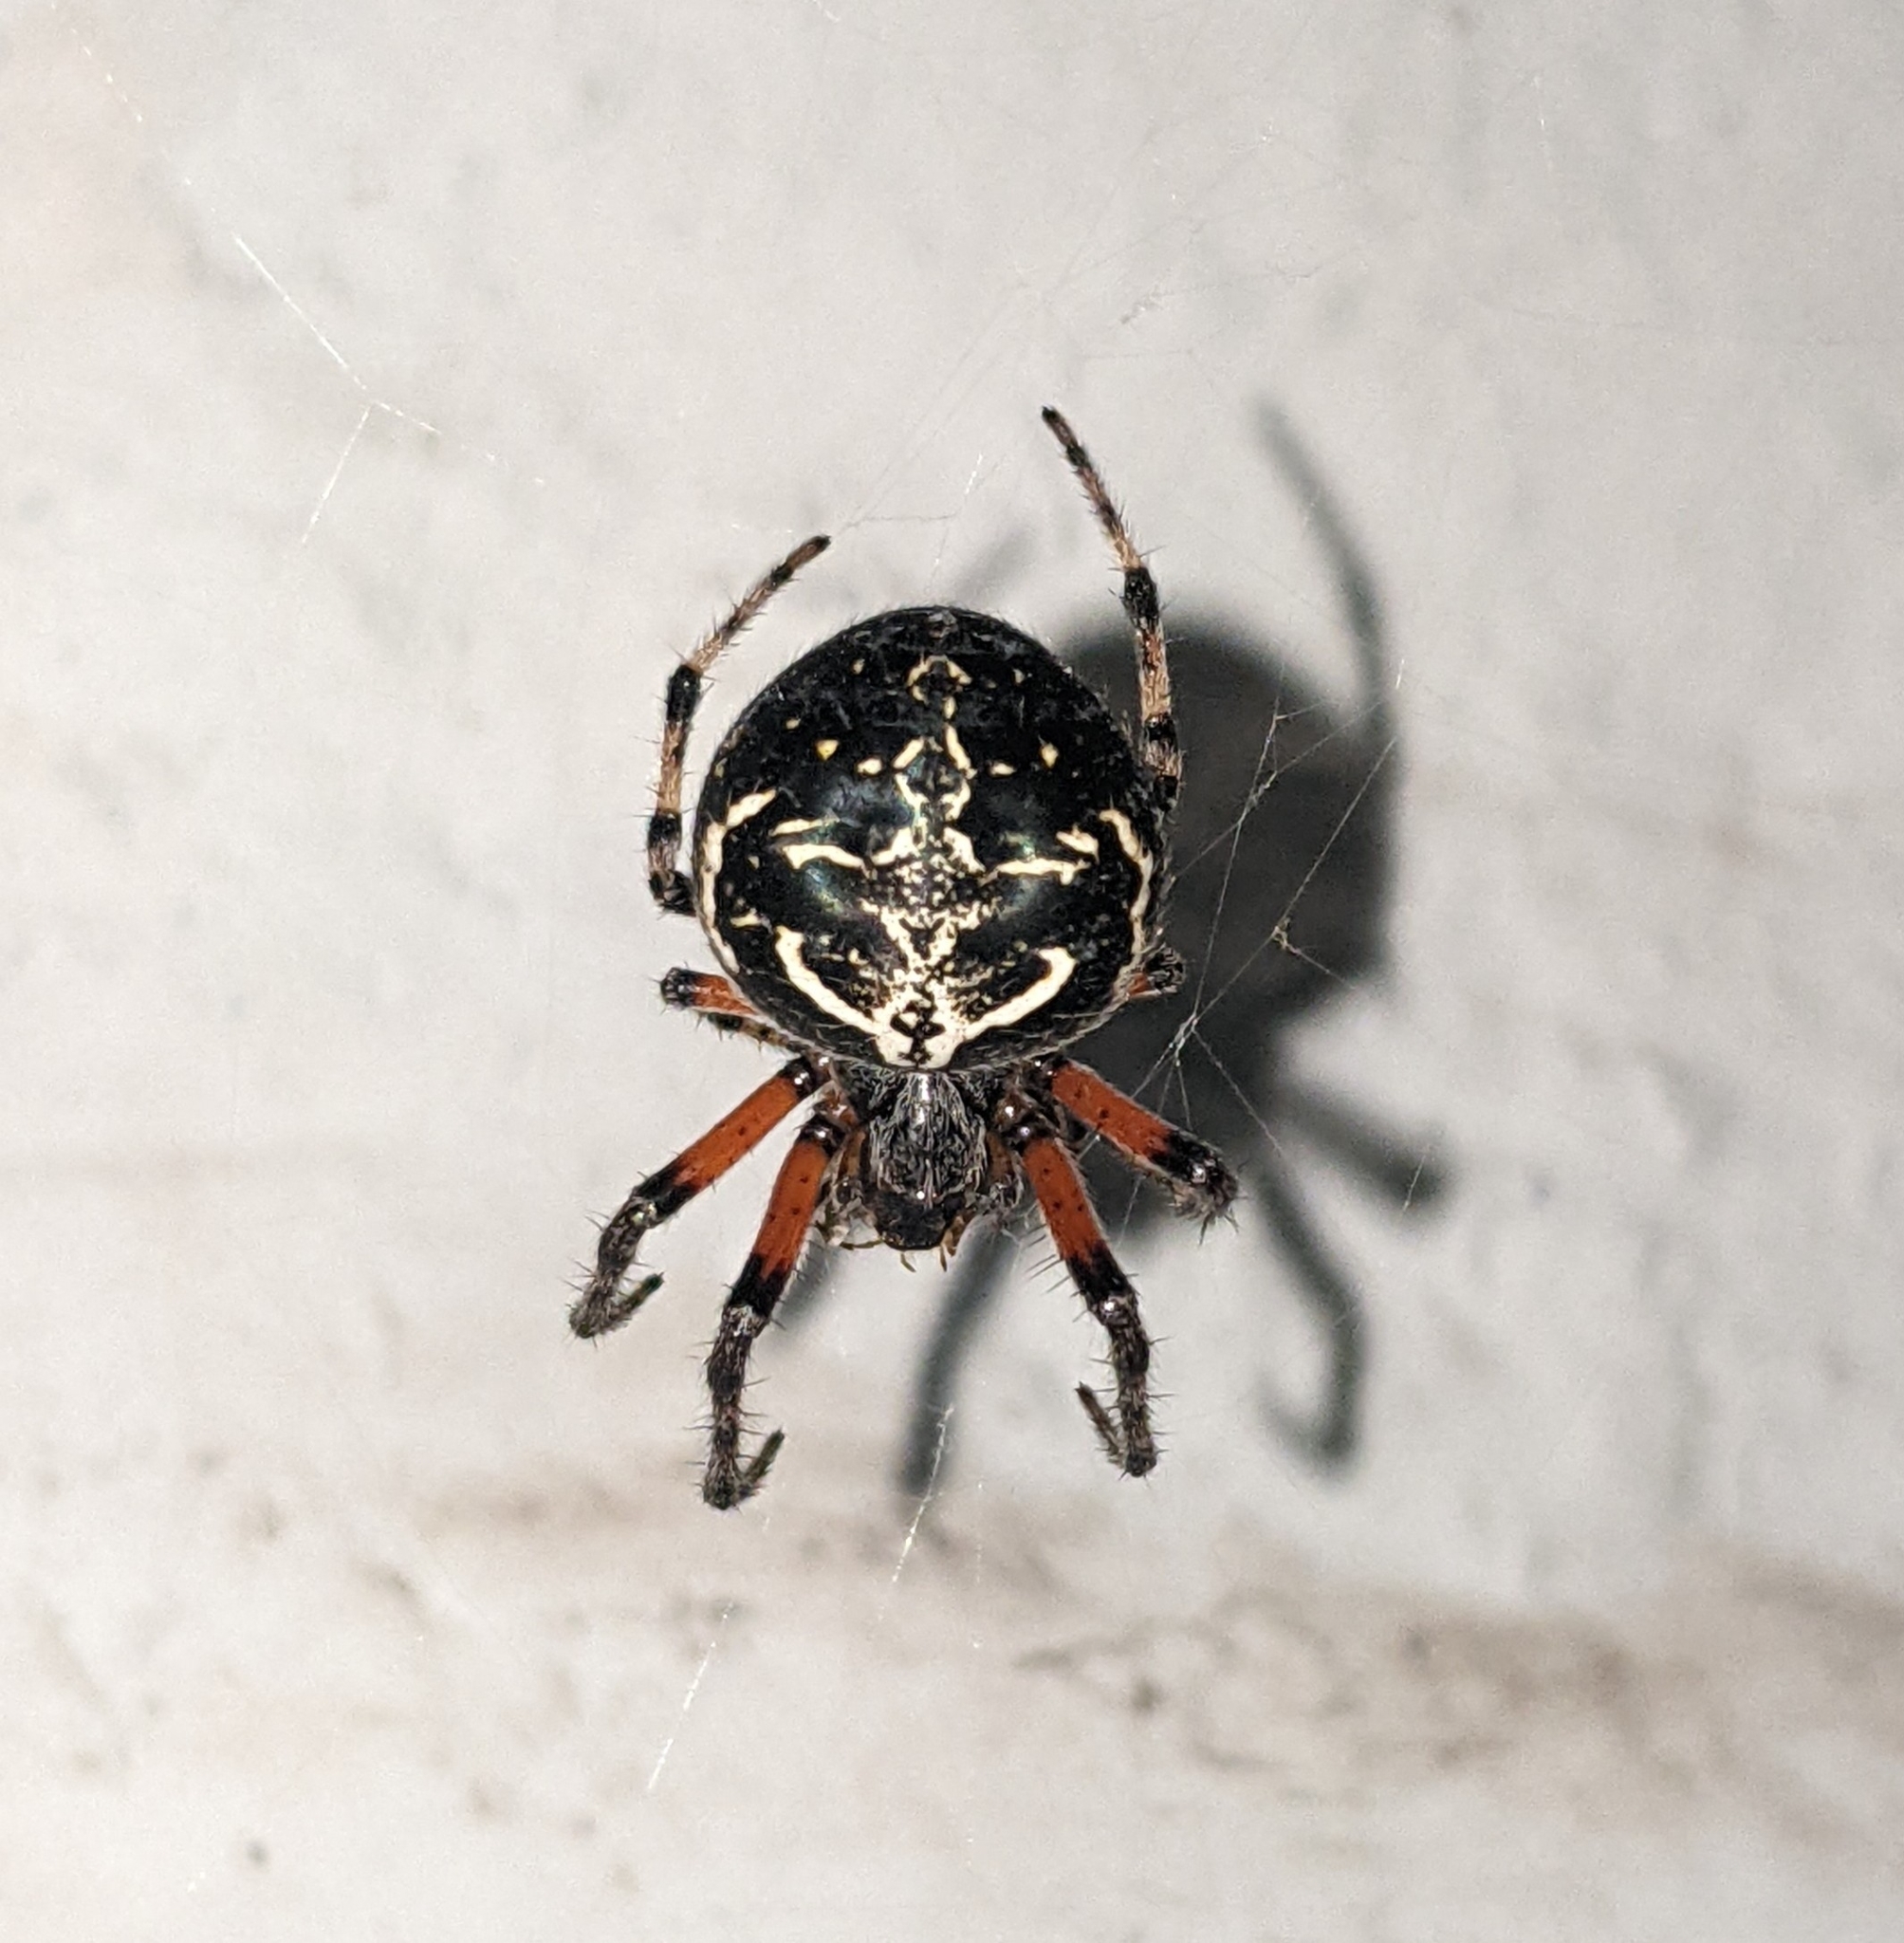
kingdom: Animalia
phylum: Arthropoda
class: Arachnida
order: Araneae
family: Araneidae
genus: Araneus
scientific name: Araneus granadensis
